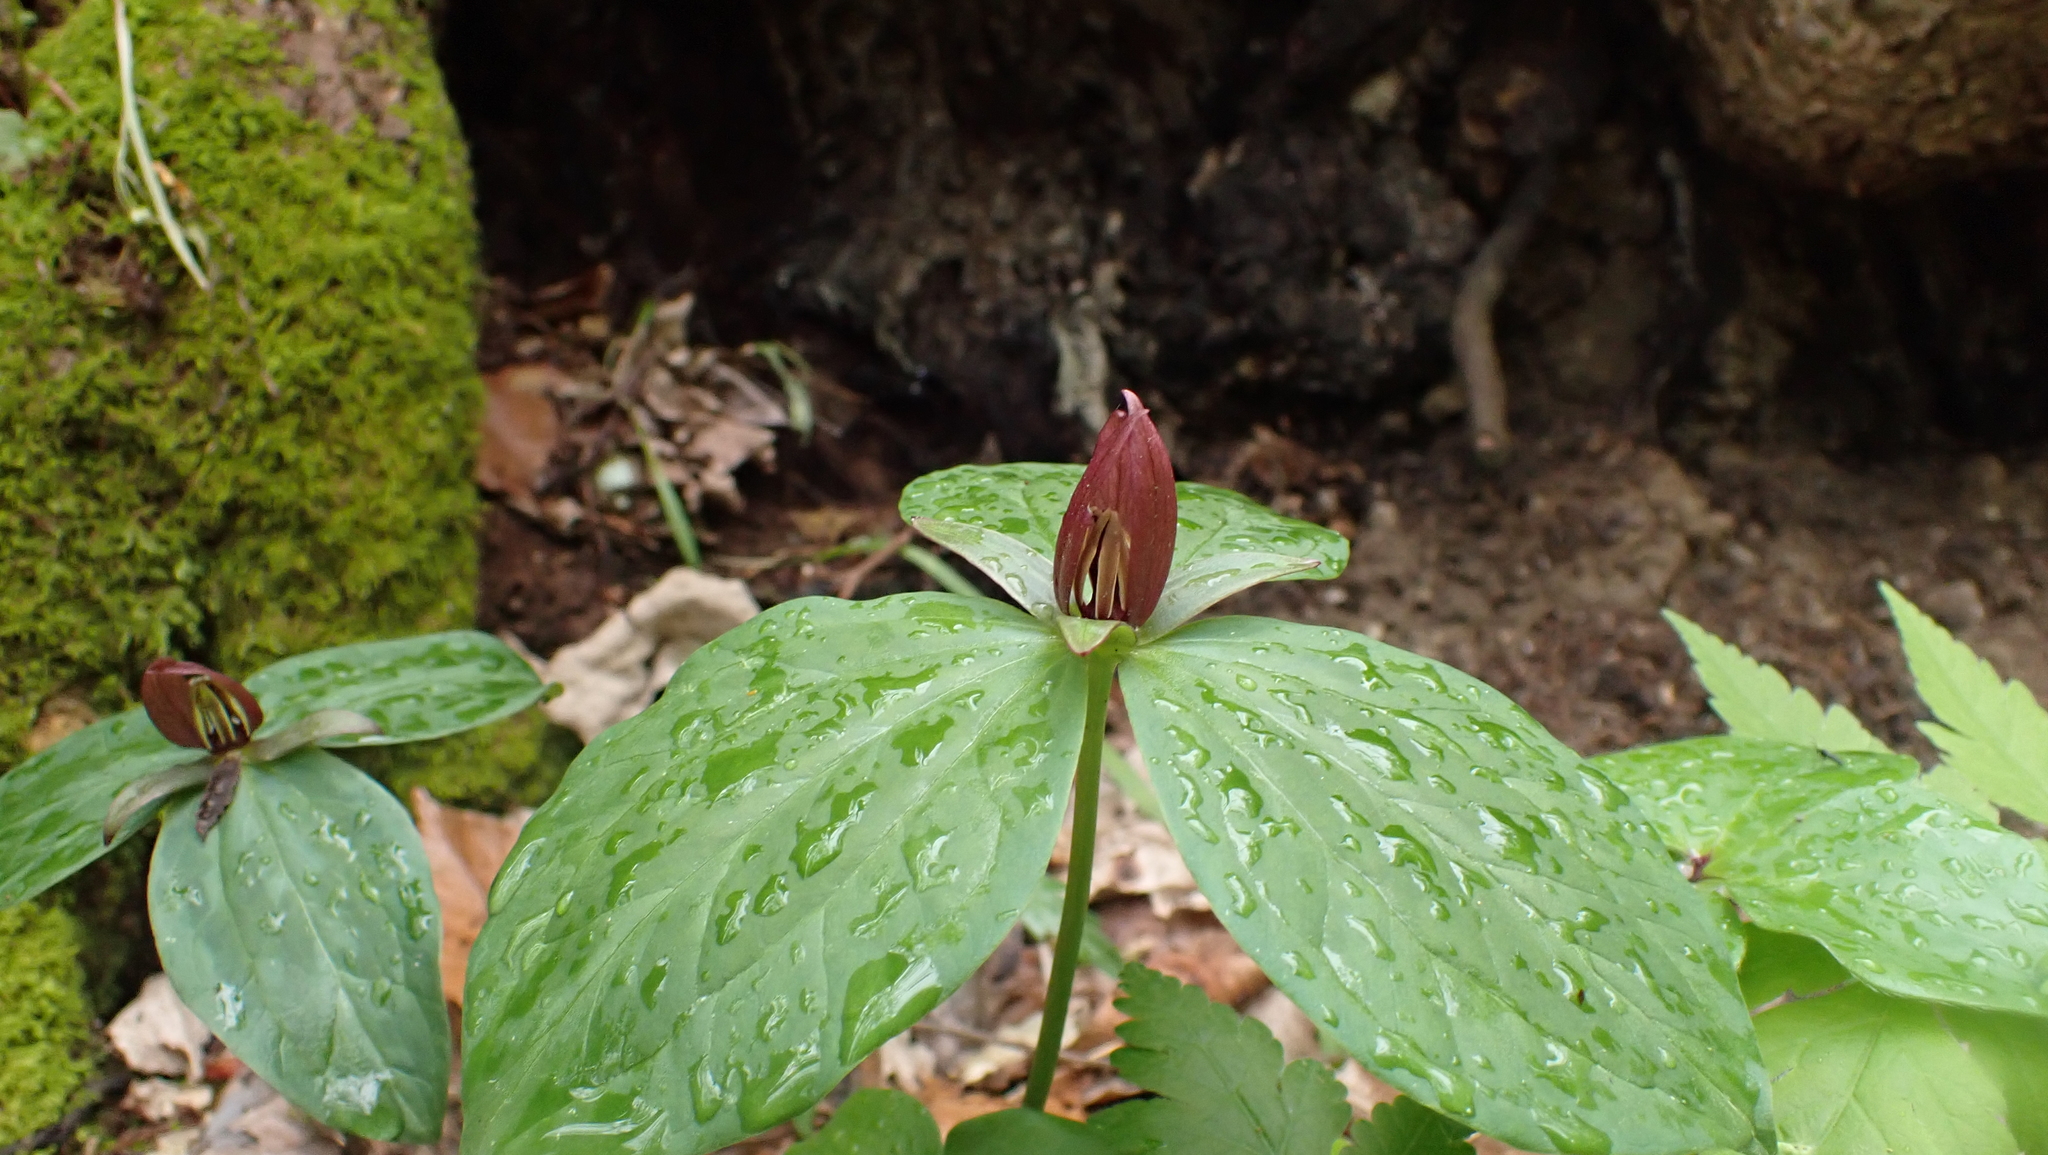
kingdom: Plantae
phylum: Tracheophyta
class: Liliopsida
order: Liliales
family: Melanthiaceae
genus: Trillium
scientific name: Trillium sessile
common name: Sessile trillium
